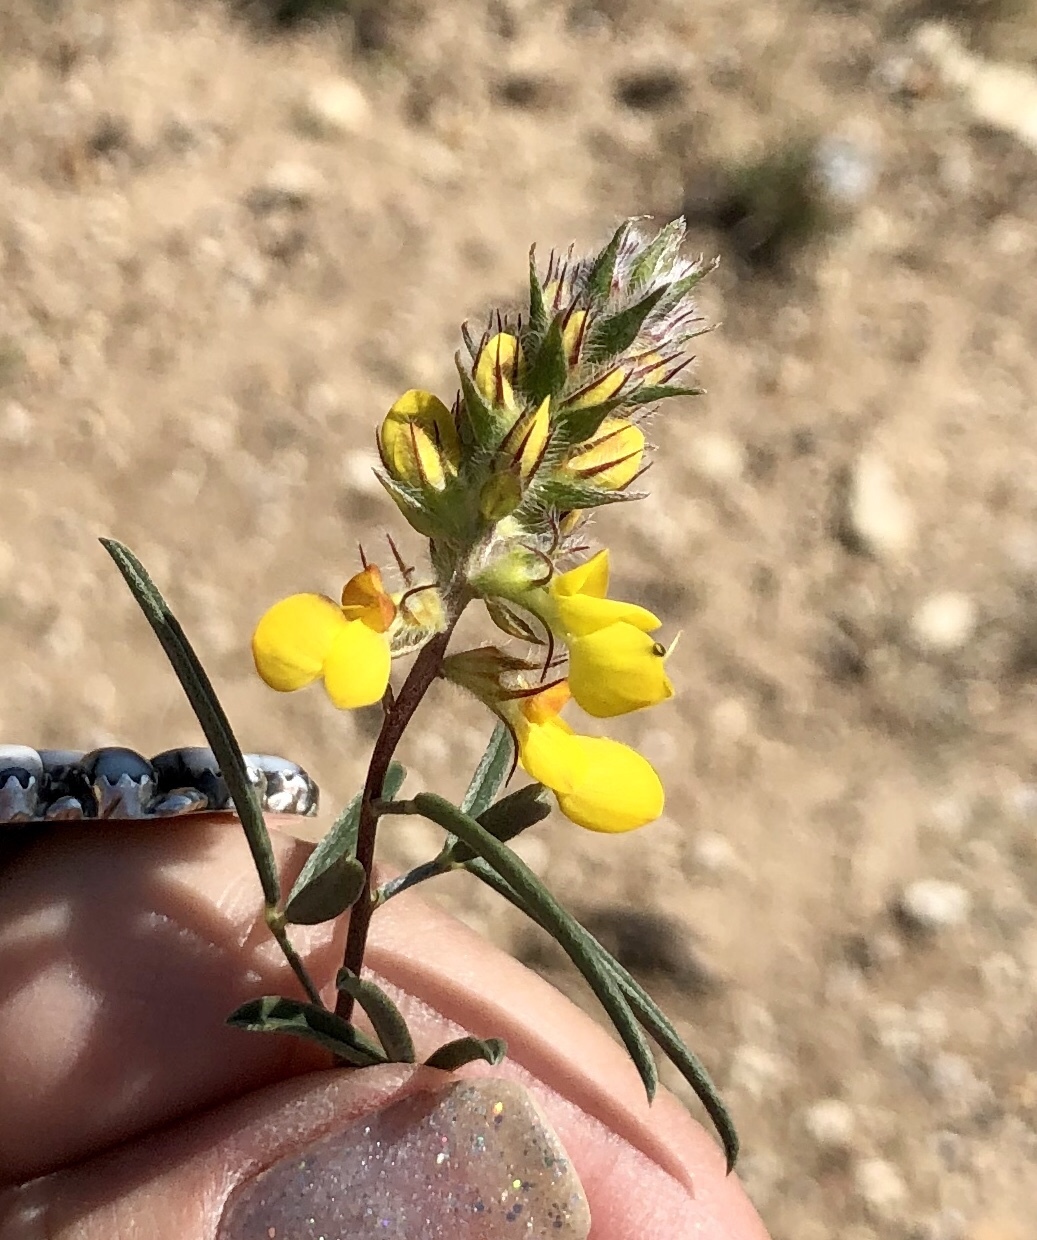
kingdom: Plantae
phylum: Tracheophyta
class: Magnoliopsida
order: Fabales
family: Fabaceae
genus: Dalea
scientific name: Dalea hallii
